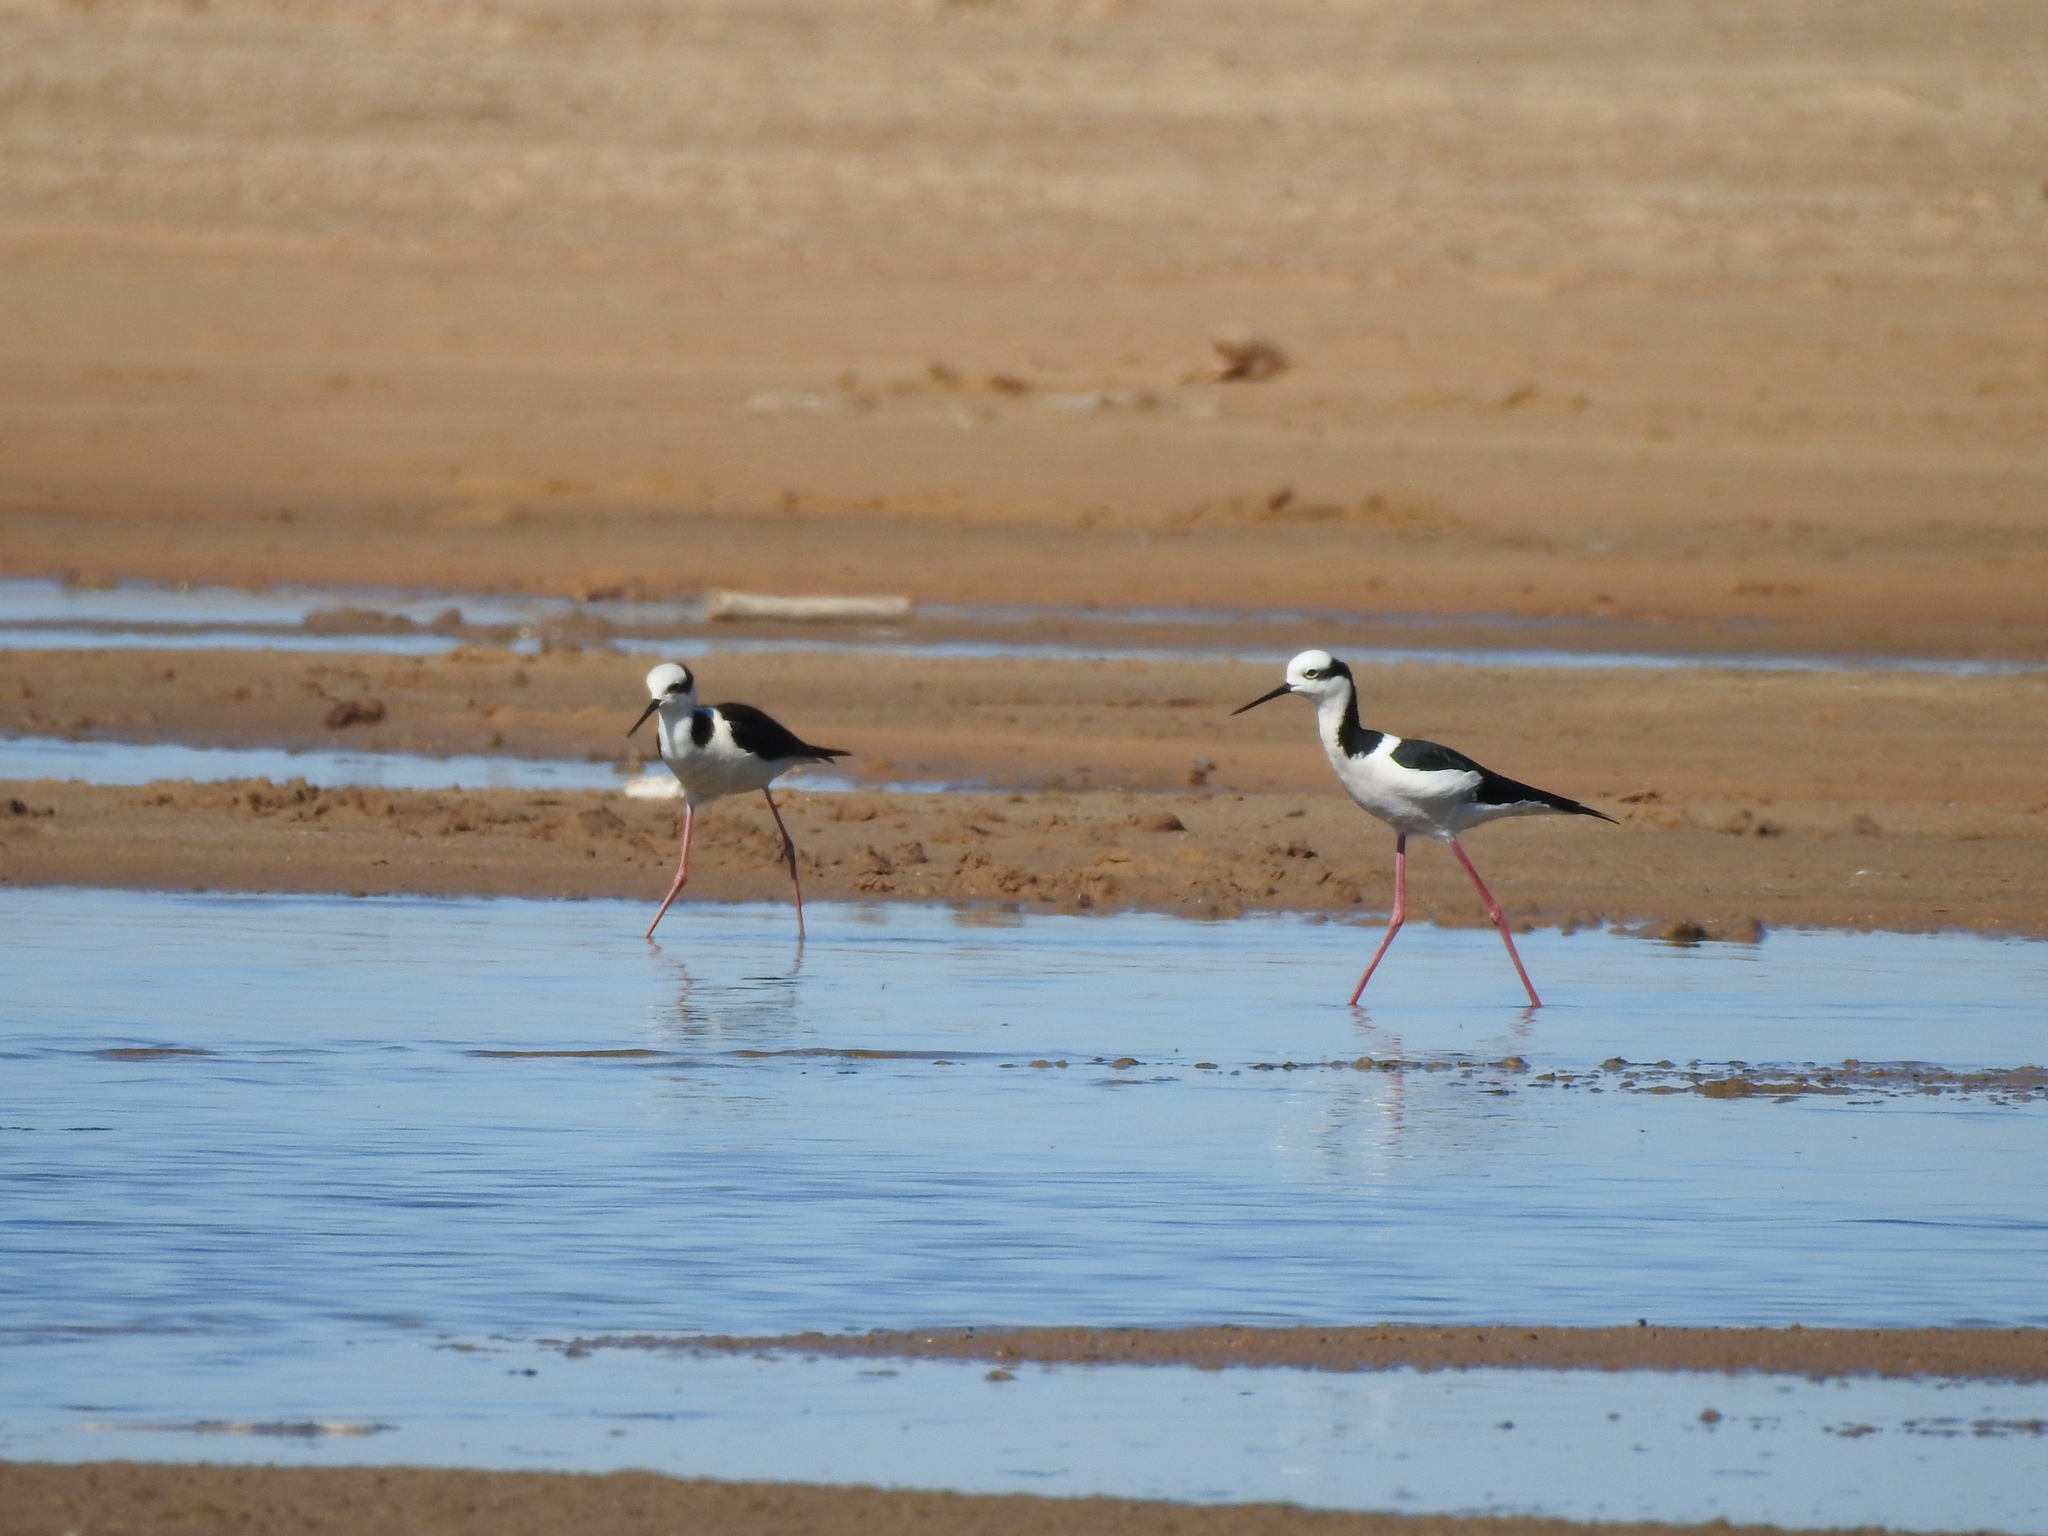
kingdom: Animalia
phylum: Chordata
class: Aves
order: Charadriiformes
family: Recurvirostridae
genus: Himantopus
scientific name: Himantopus mexicanus
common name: Black-necked stilt
